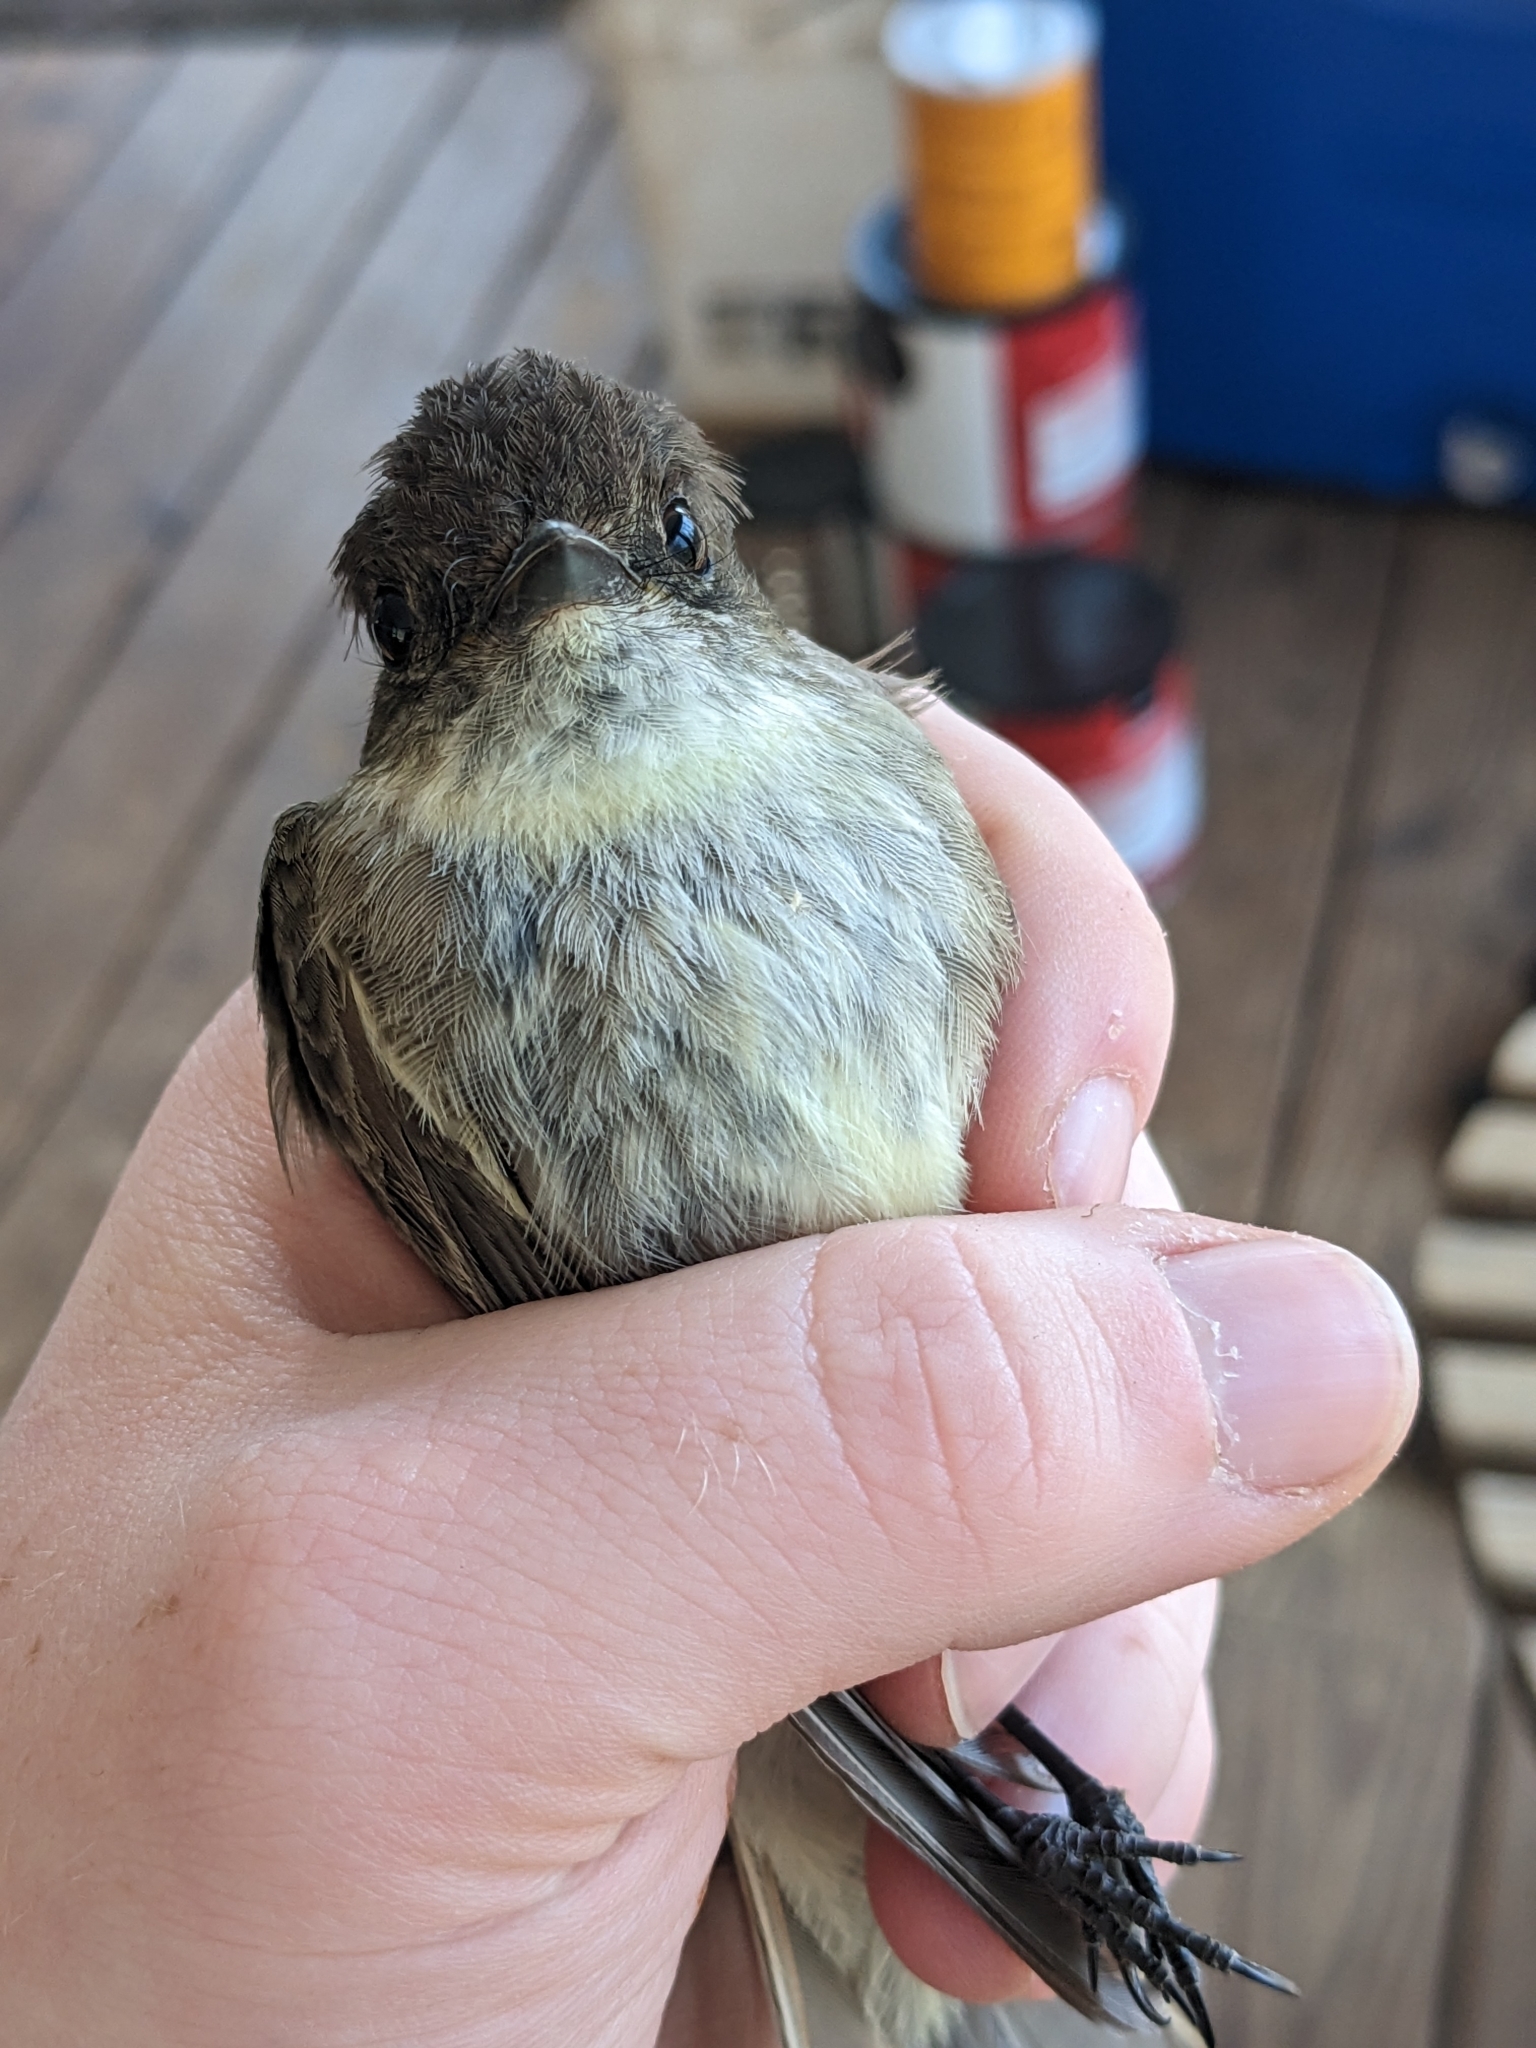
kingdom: Animalia
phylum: Chordata
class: Aves
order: Passeriformes
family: Tyrannidae
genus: Sayornis
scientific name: Sayornis phoebe
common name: Eastern phoebe
